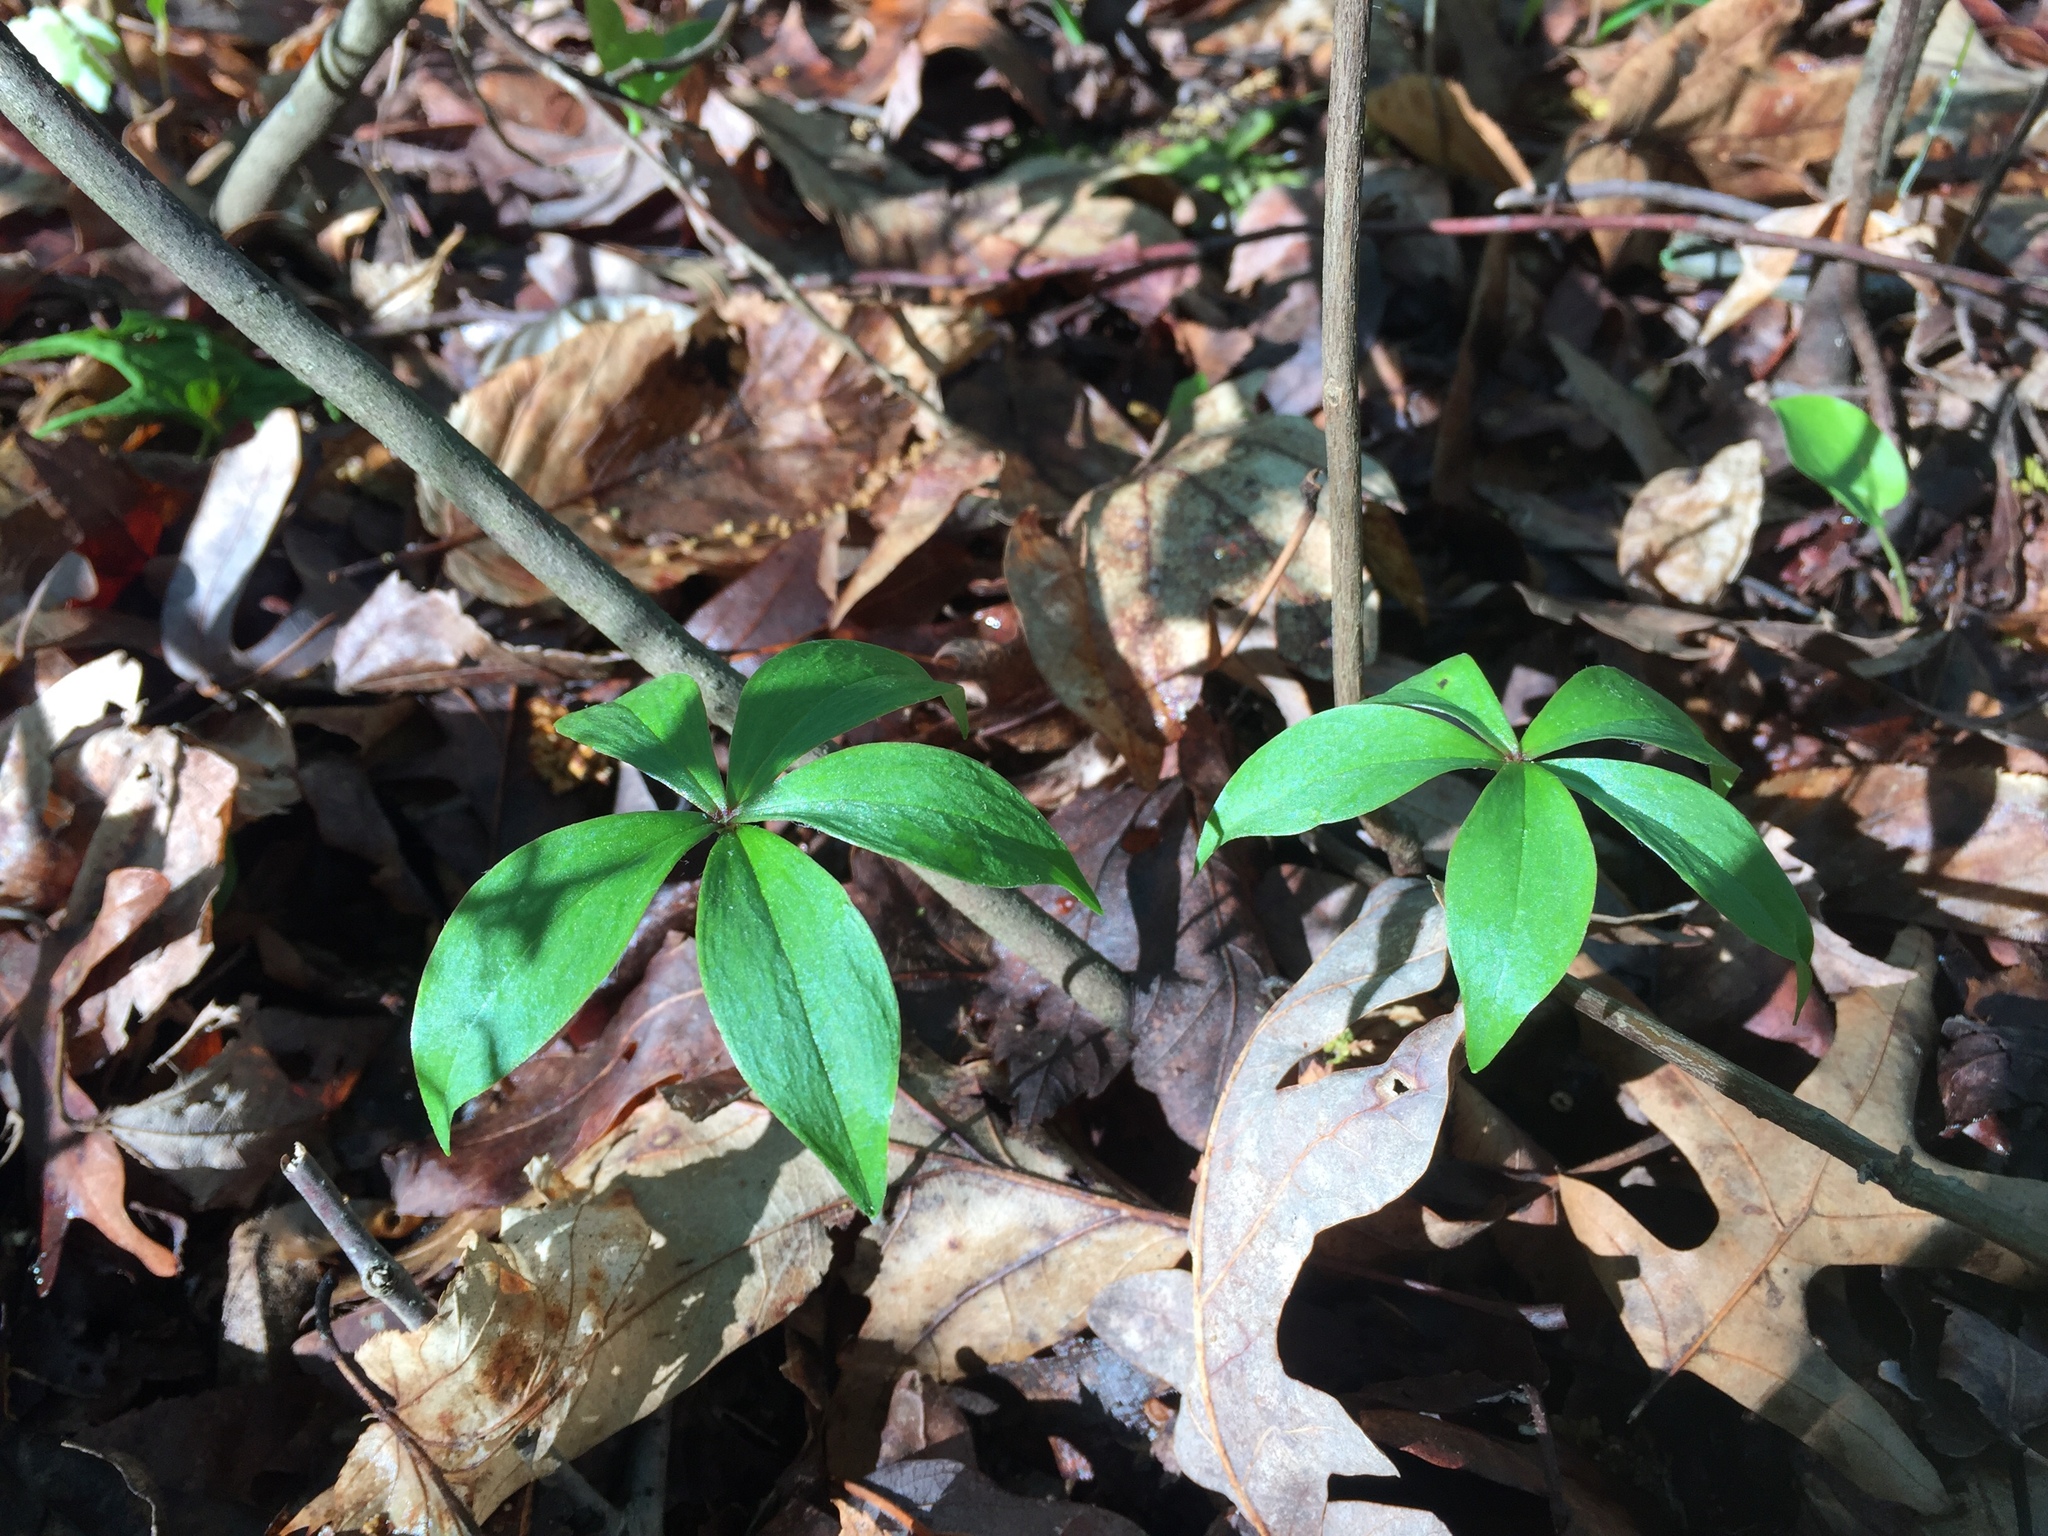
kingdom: Plantae
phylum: Tracheophyta
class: Liliopsida
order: Liliales
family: Liliaceae
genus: Medeola
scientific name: Medeola virginiana
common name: Indian cucumber-root
